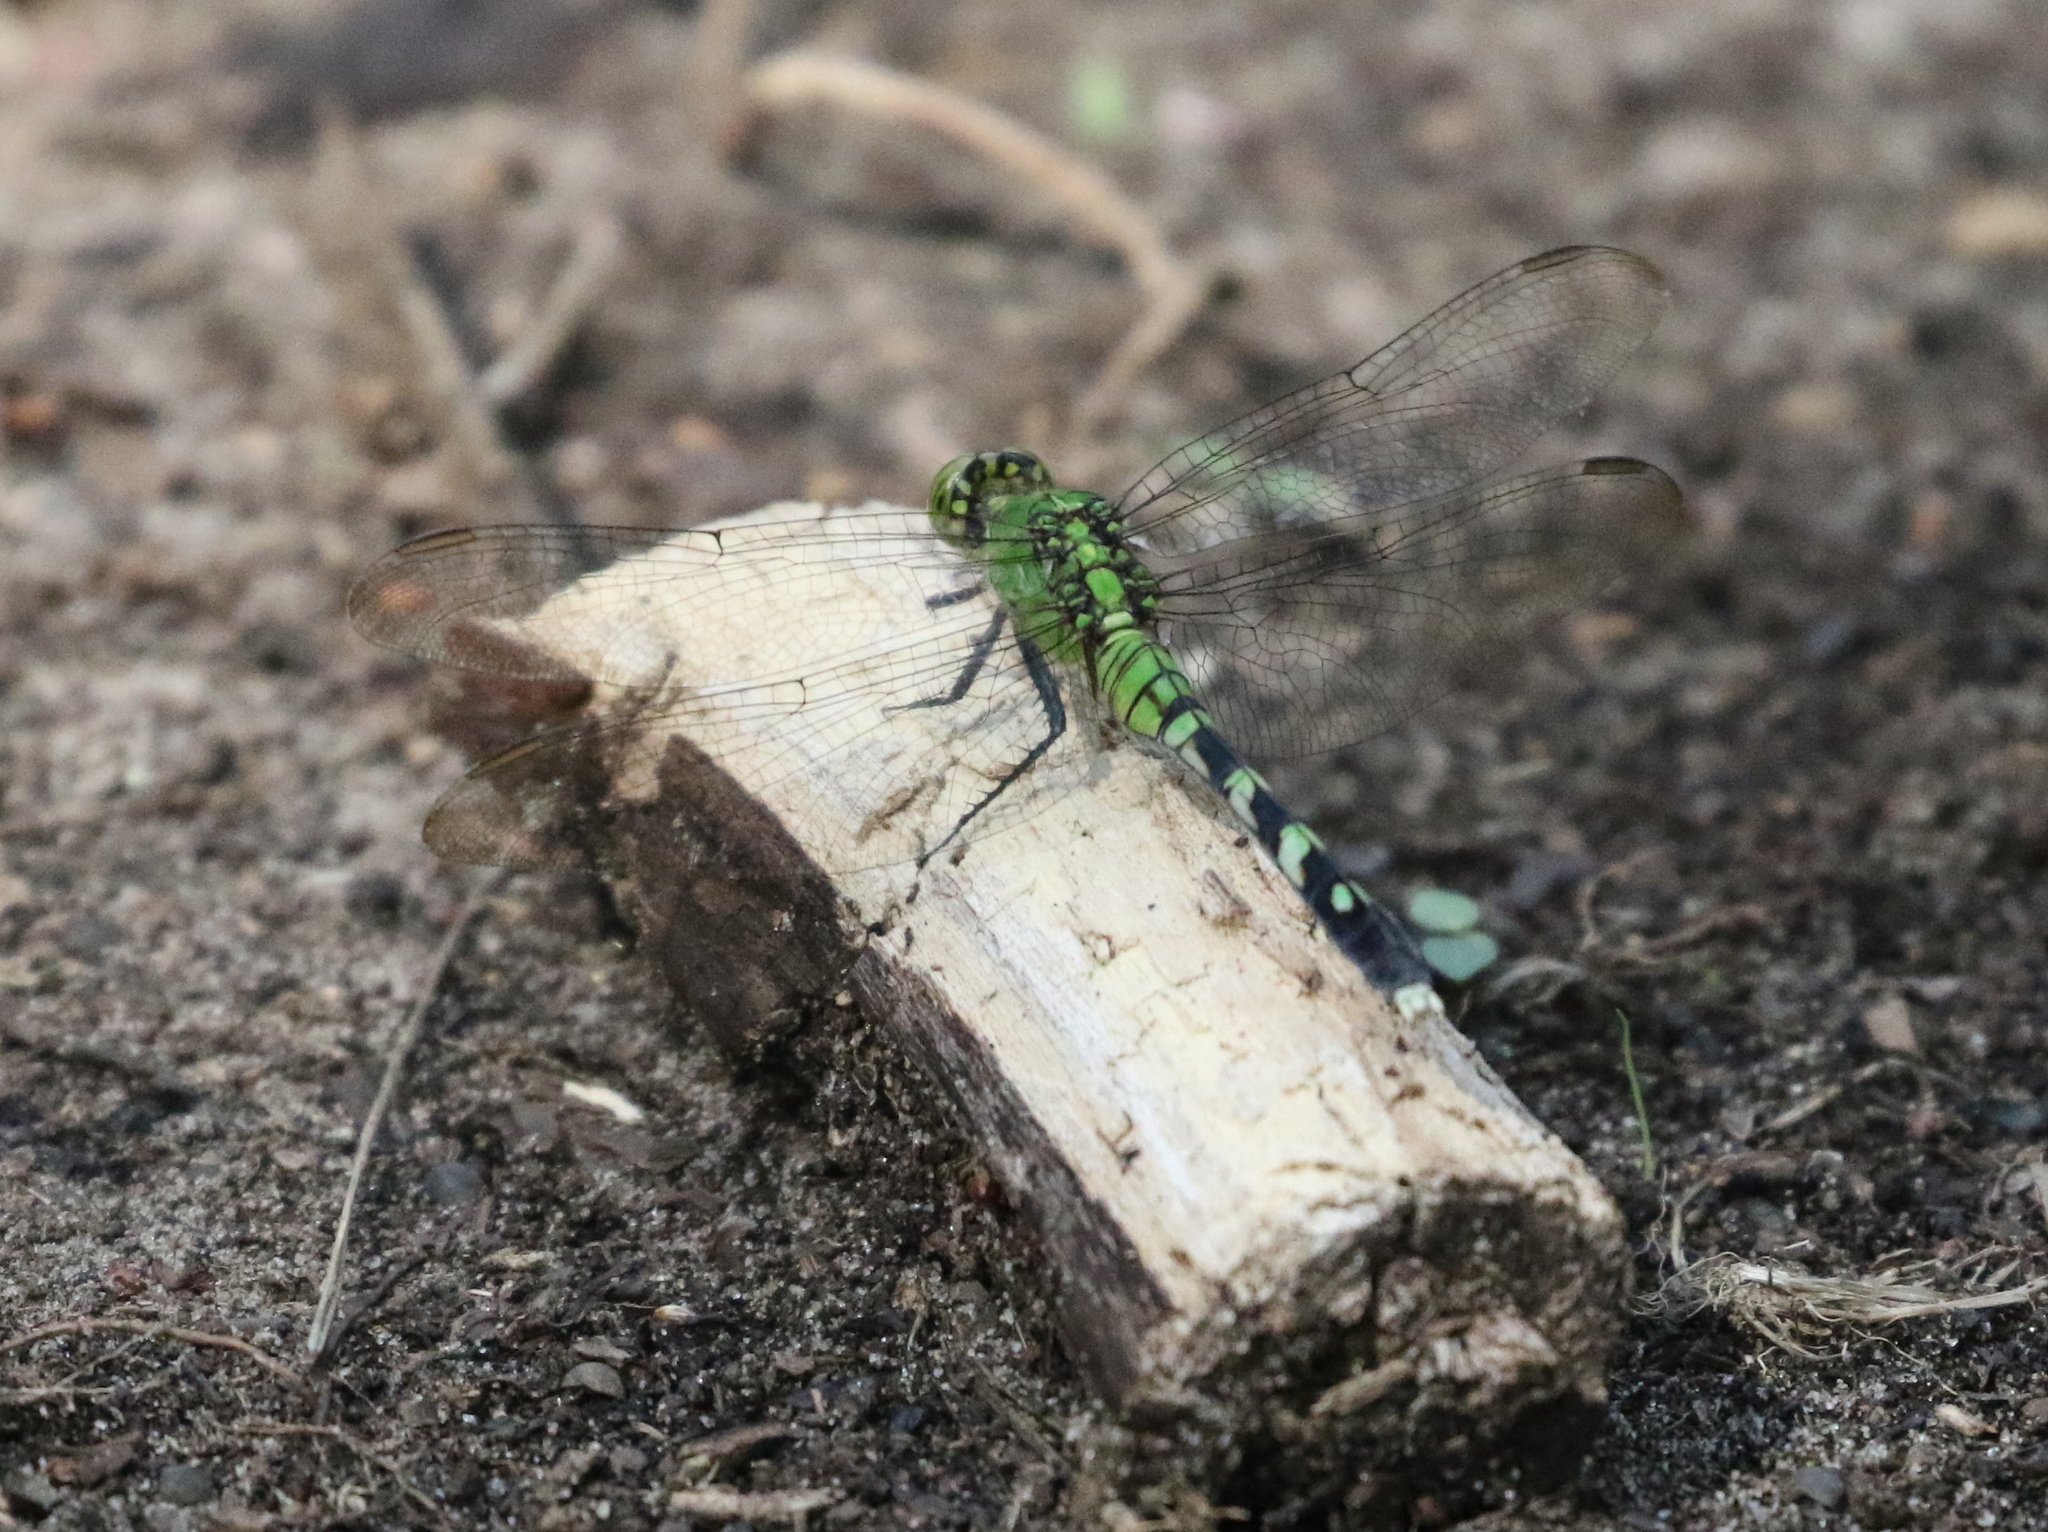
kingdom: Animalia
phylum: Arthropoda
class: Insecta
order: Odonata
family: Libellulidae
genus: Erythemis
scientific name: Erythemis simplicicollis
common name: Eastern pondhawk
